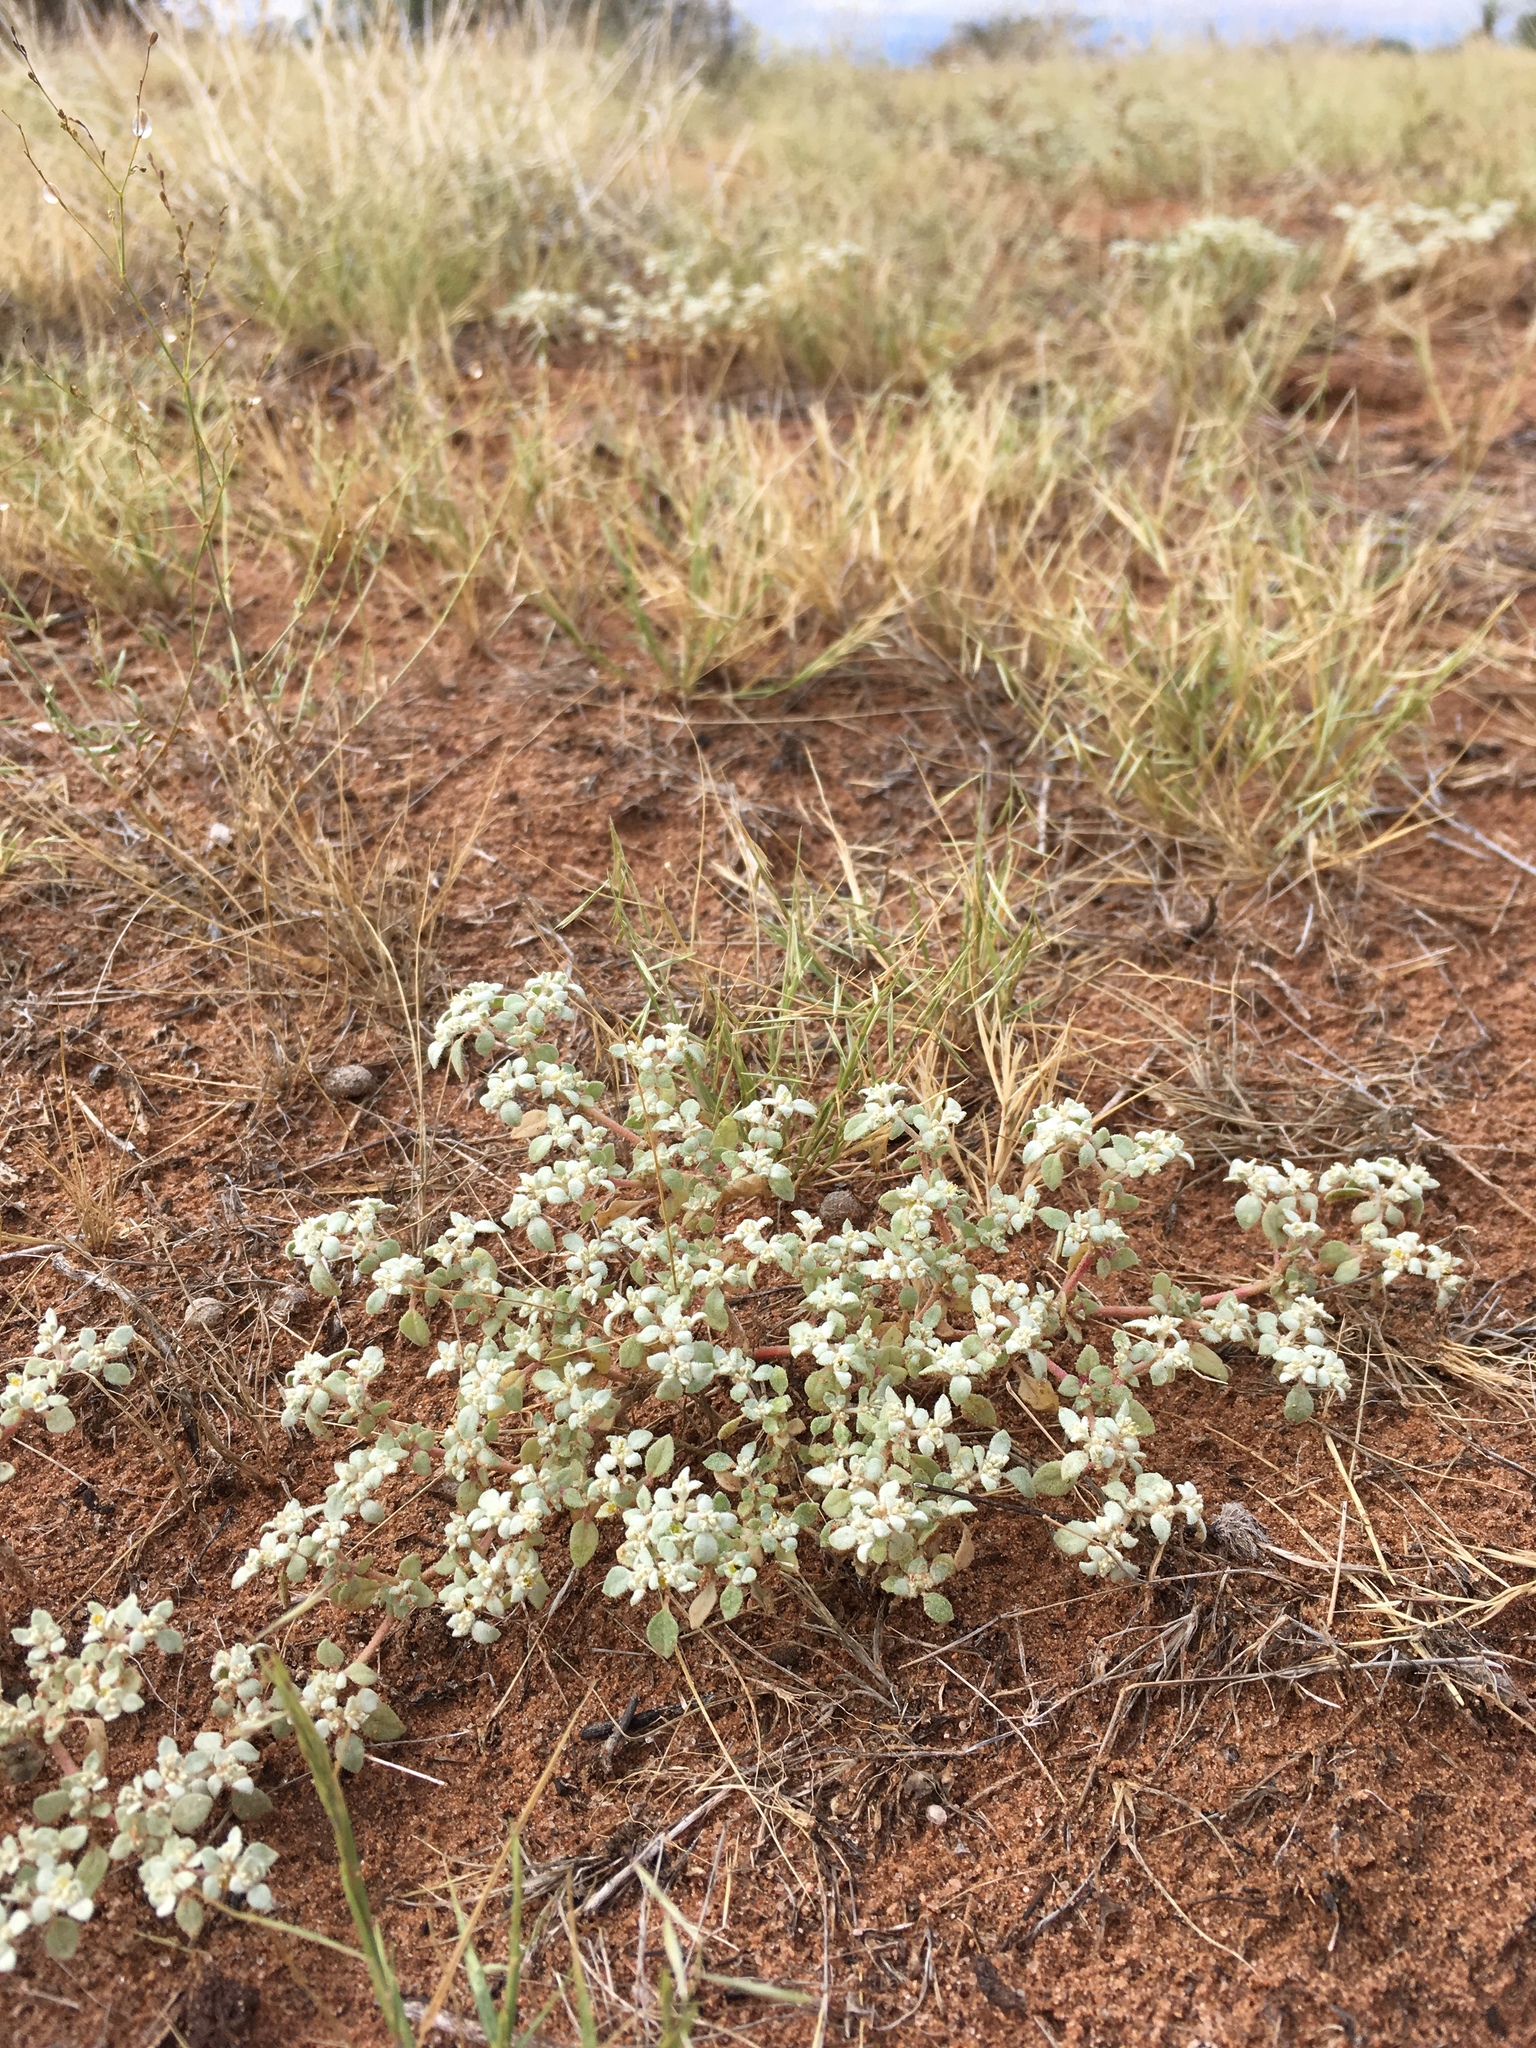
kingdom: Plantae
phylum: Tracheophyta
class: Magnoliopsida
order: Caryophyllales
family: Amaranthaceae
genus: Tidestromia
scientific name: Tidestromia lanuginosa
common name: Woolly tidestromia
